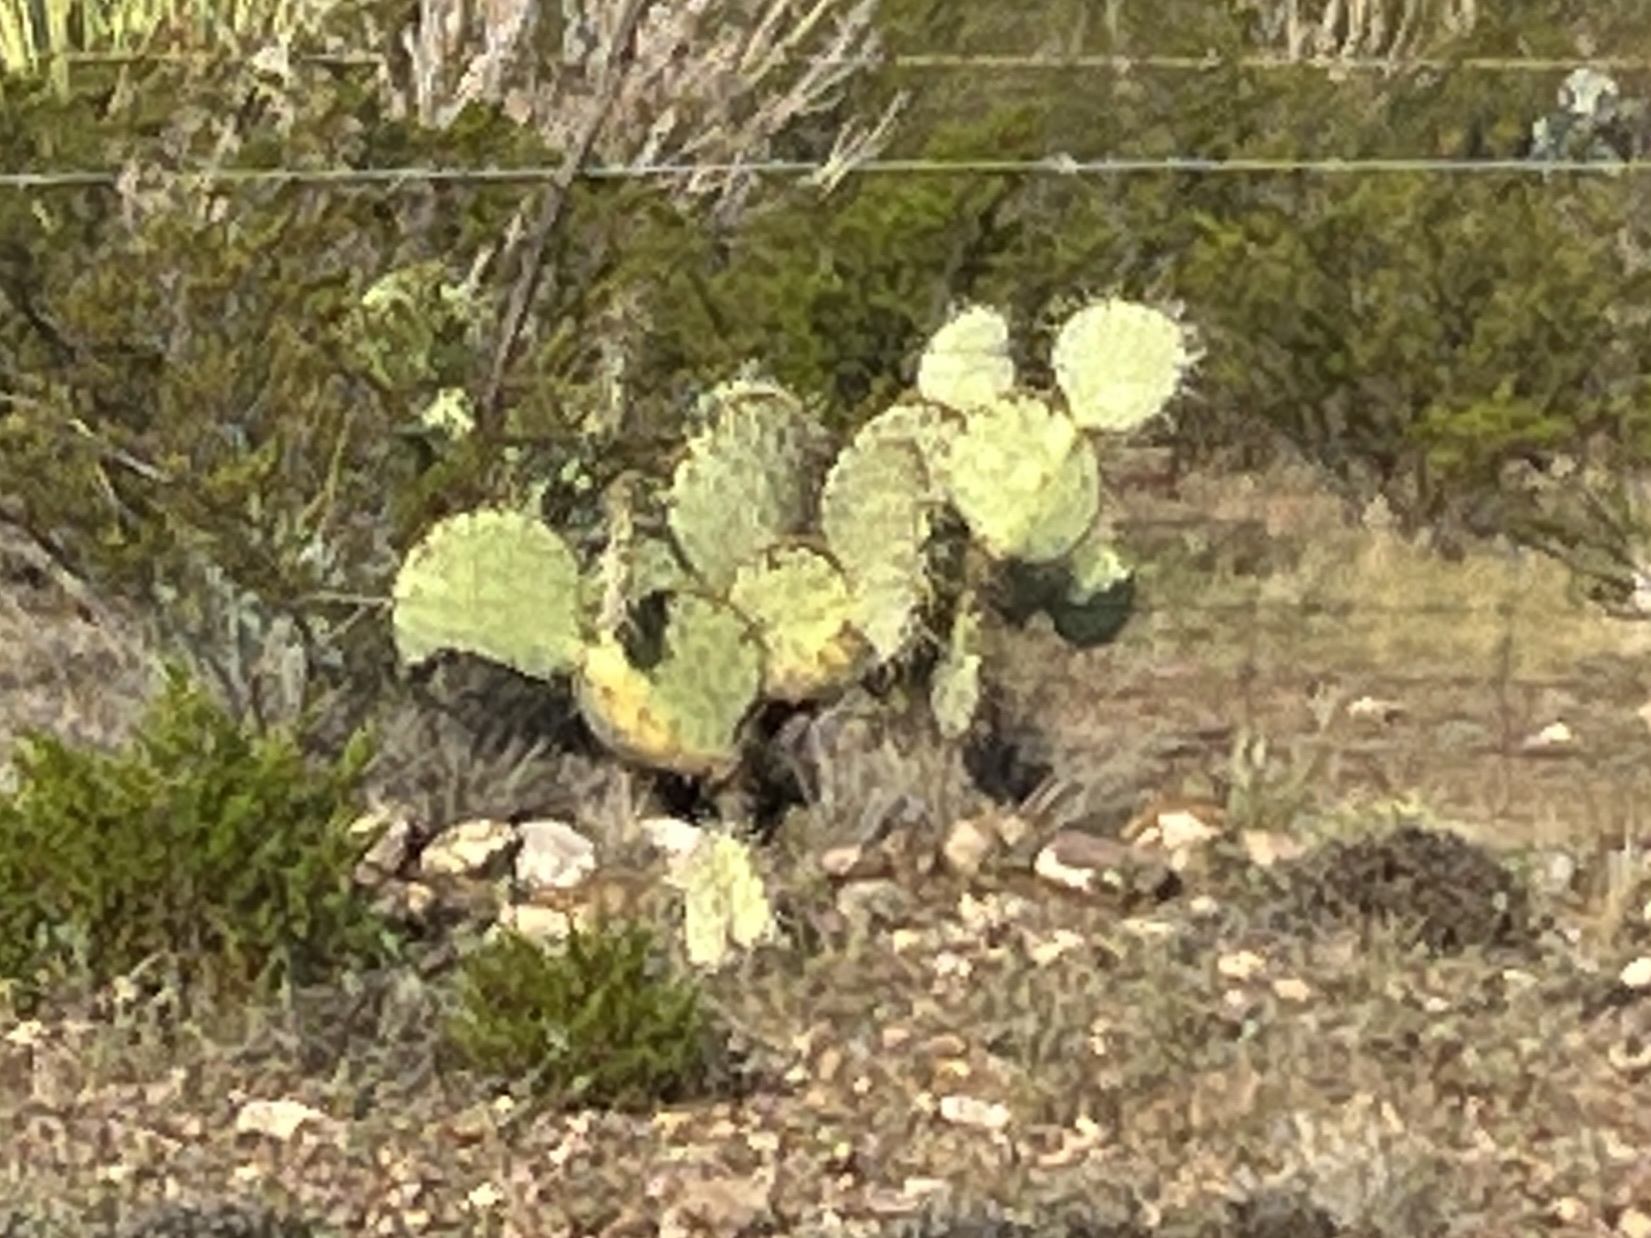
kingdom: Plantae
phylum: Tracheophyta
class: Magnoliopsida
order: Caryophyllales
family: Cactaceae
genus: Opuntia
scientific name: Opuntia engelmannii
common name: Cactus-apple
